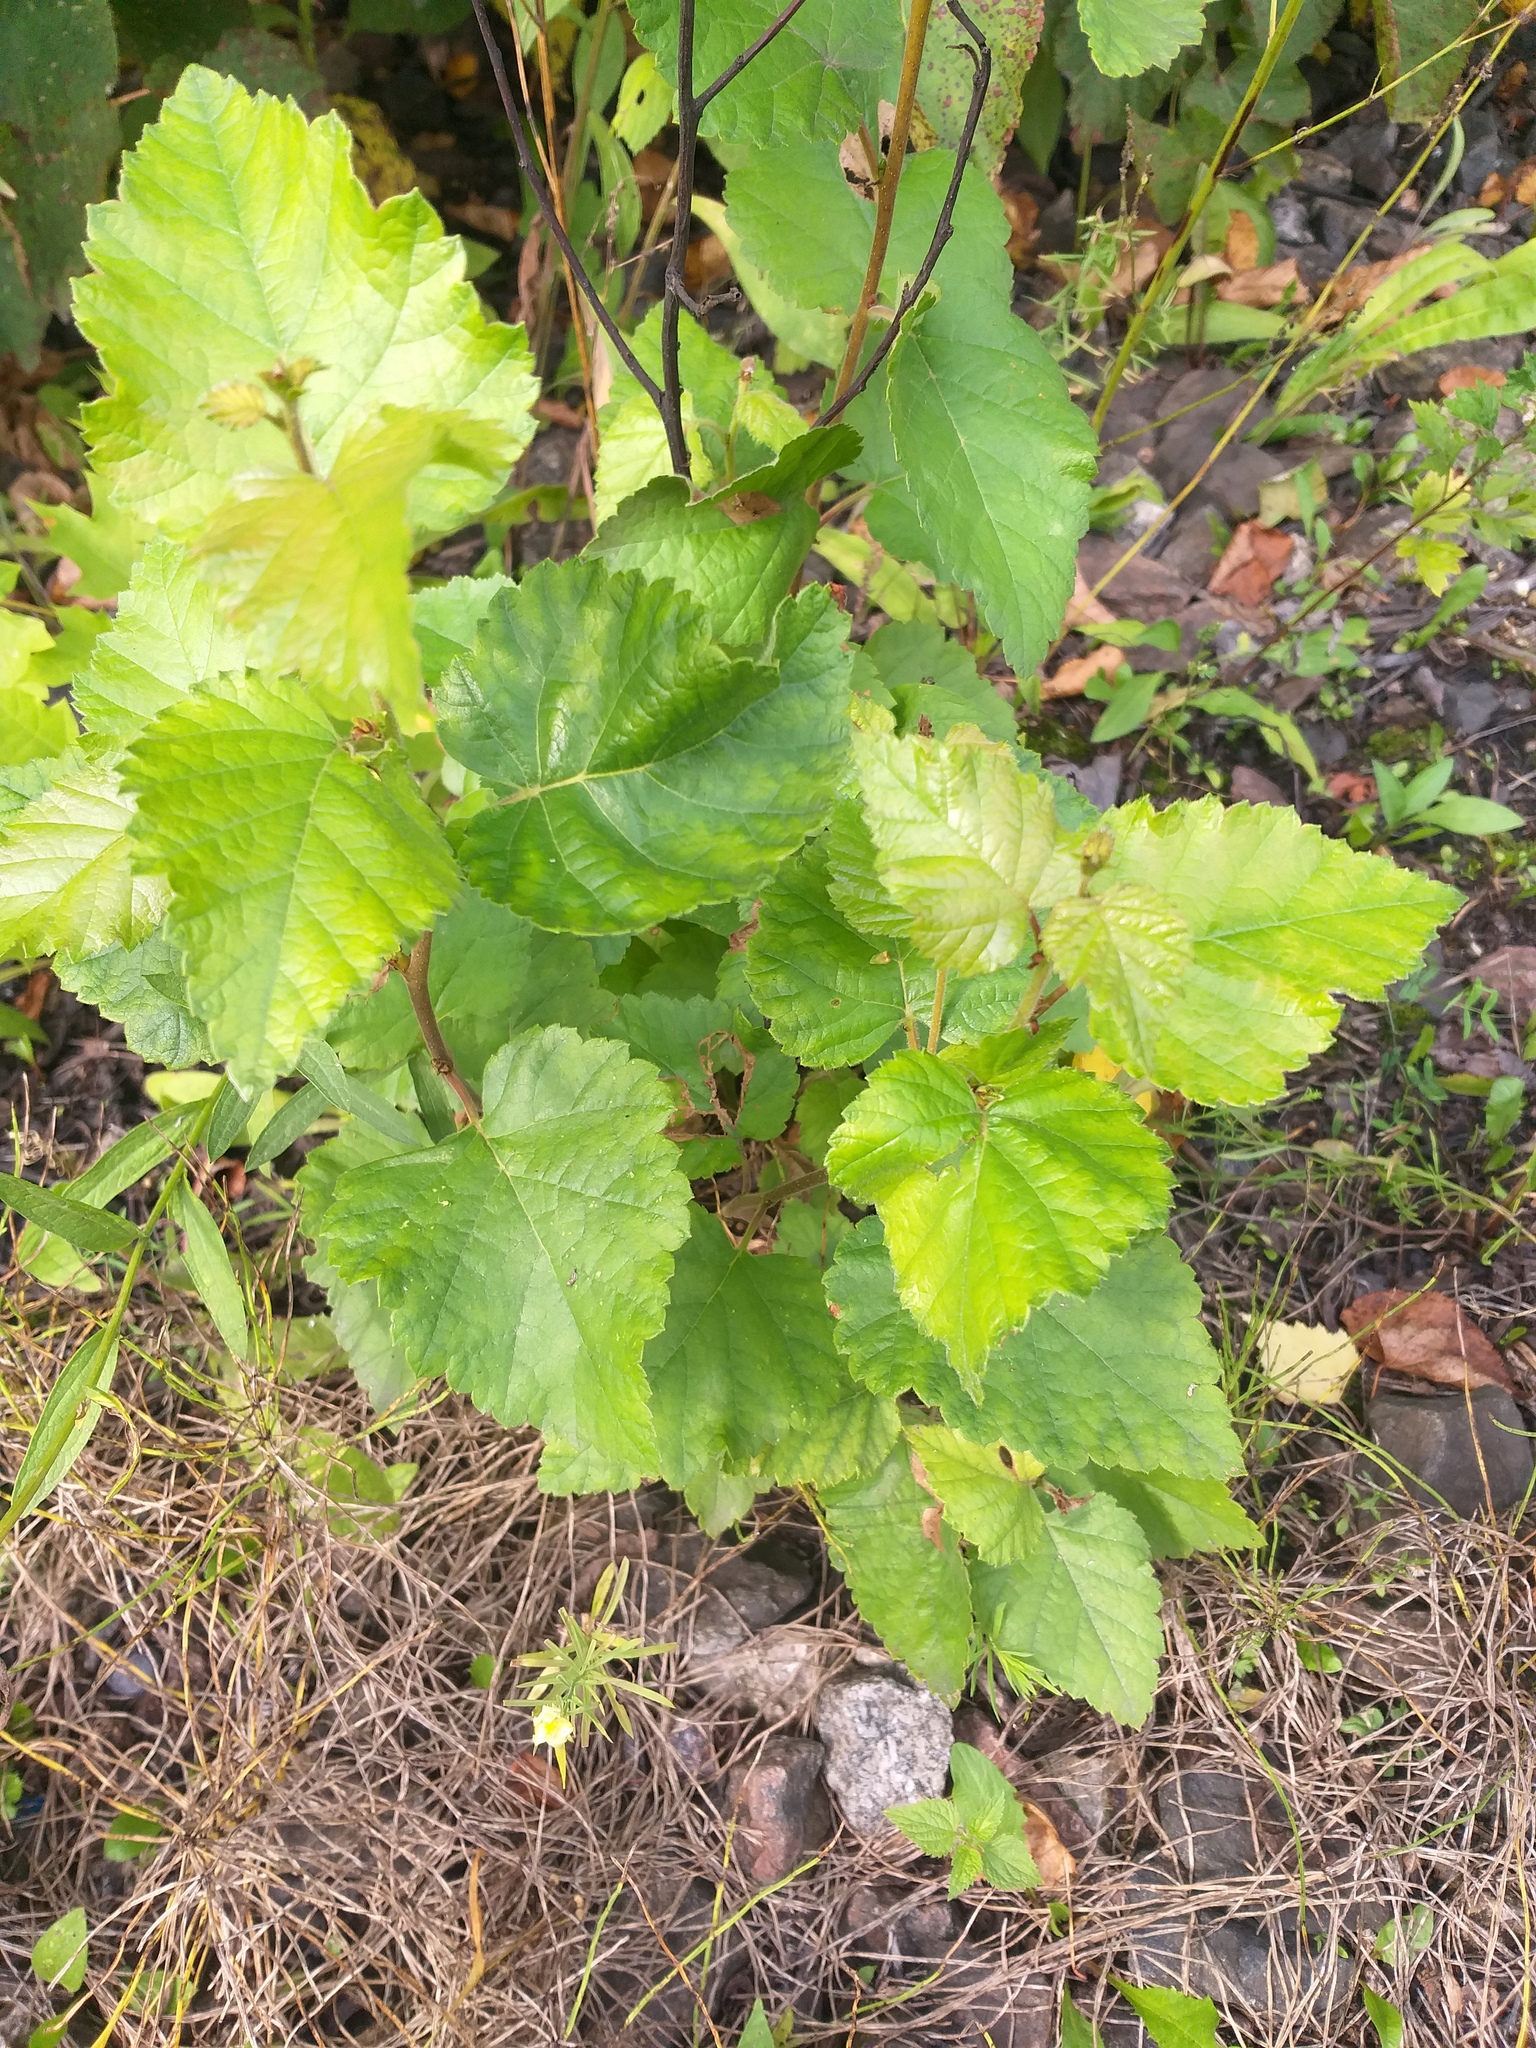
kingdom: Plantae
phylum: Tracheophyta
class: Magnoliopsida
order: Fagales
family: Betulaceae
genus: Betula
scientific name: Betula pubescens
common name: Downy birch
